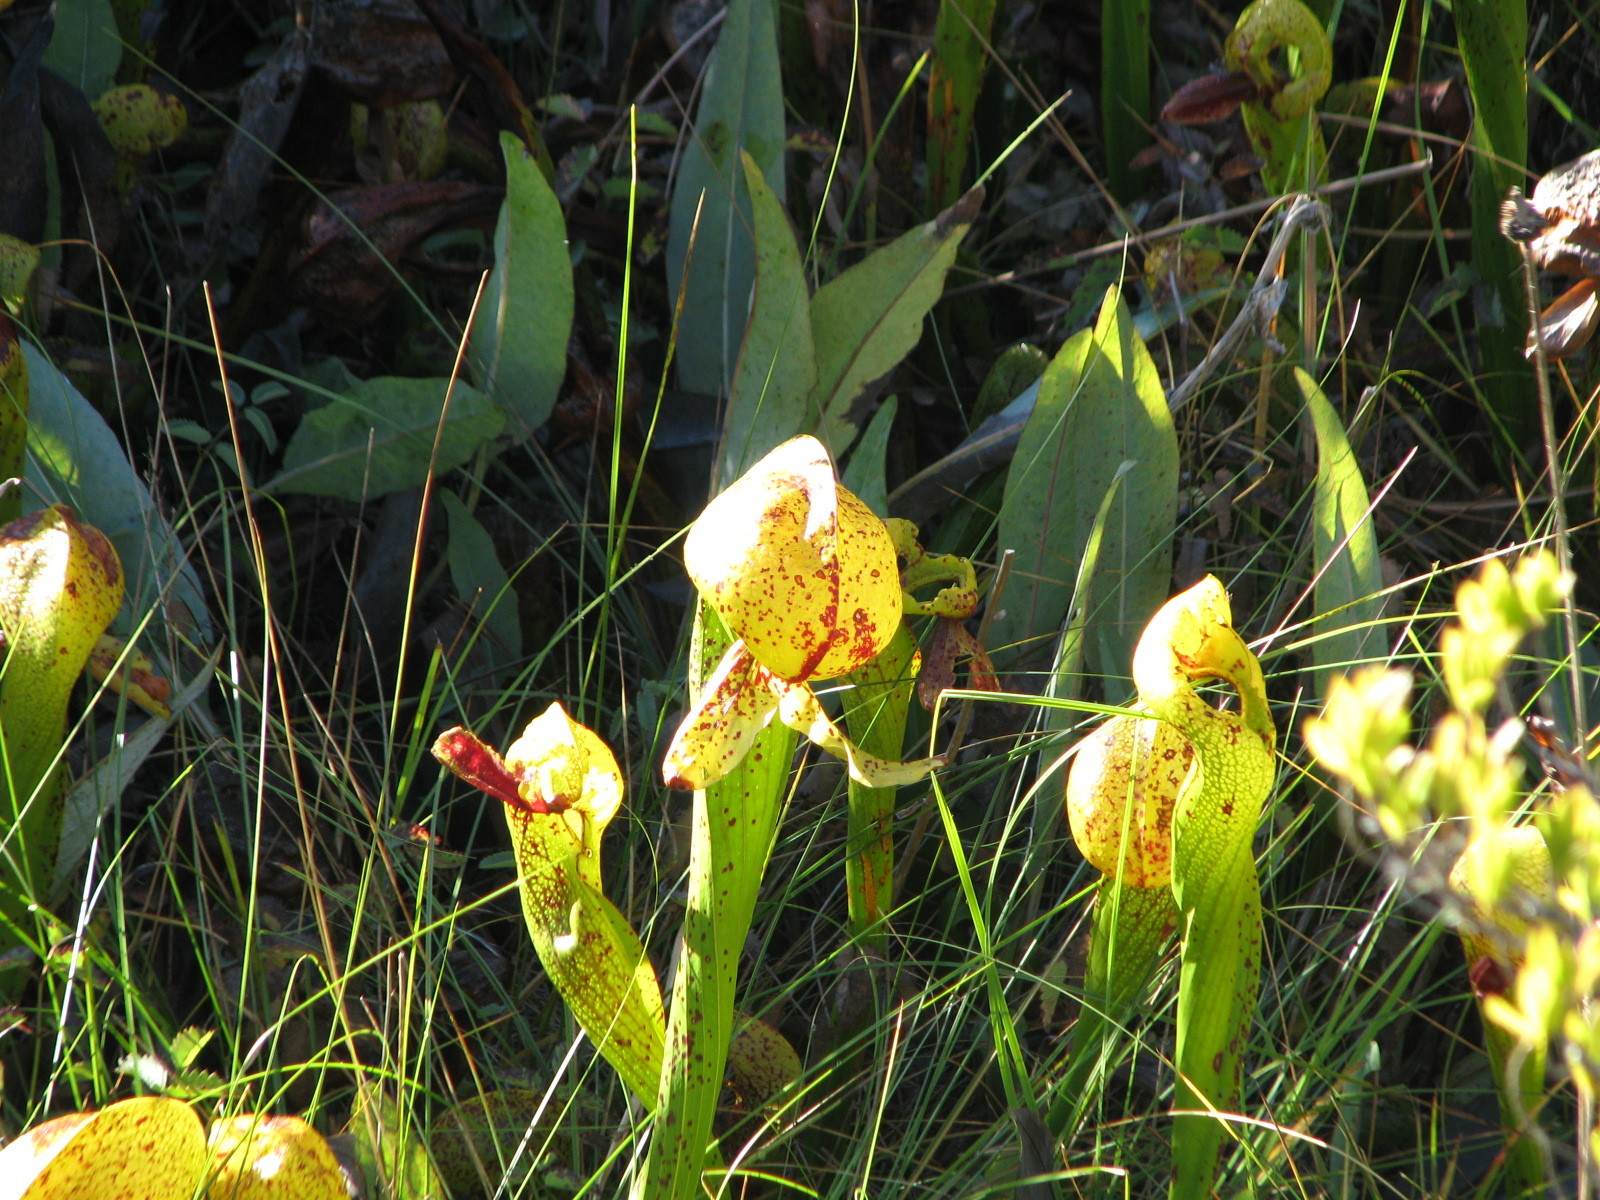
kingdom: Plantae
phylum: Tracheophyta
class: Magnoliopsida
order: Ericales
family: Sarraceniaceae
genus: Darlingtonia
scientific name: Darlingtonia californica
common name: California pitcher plant
